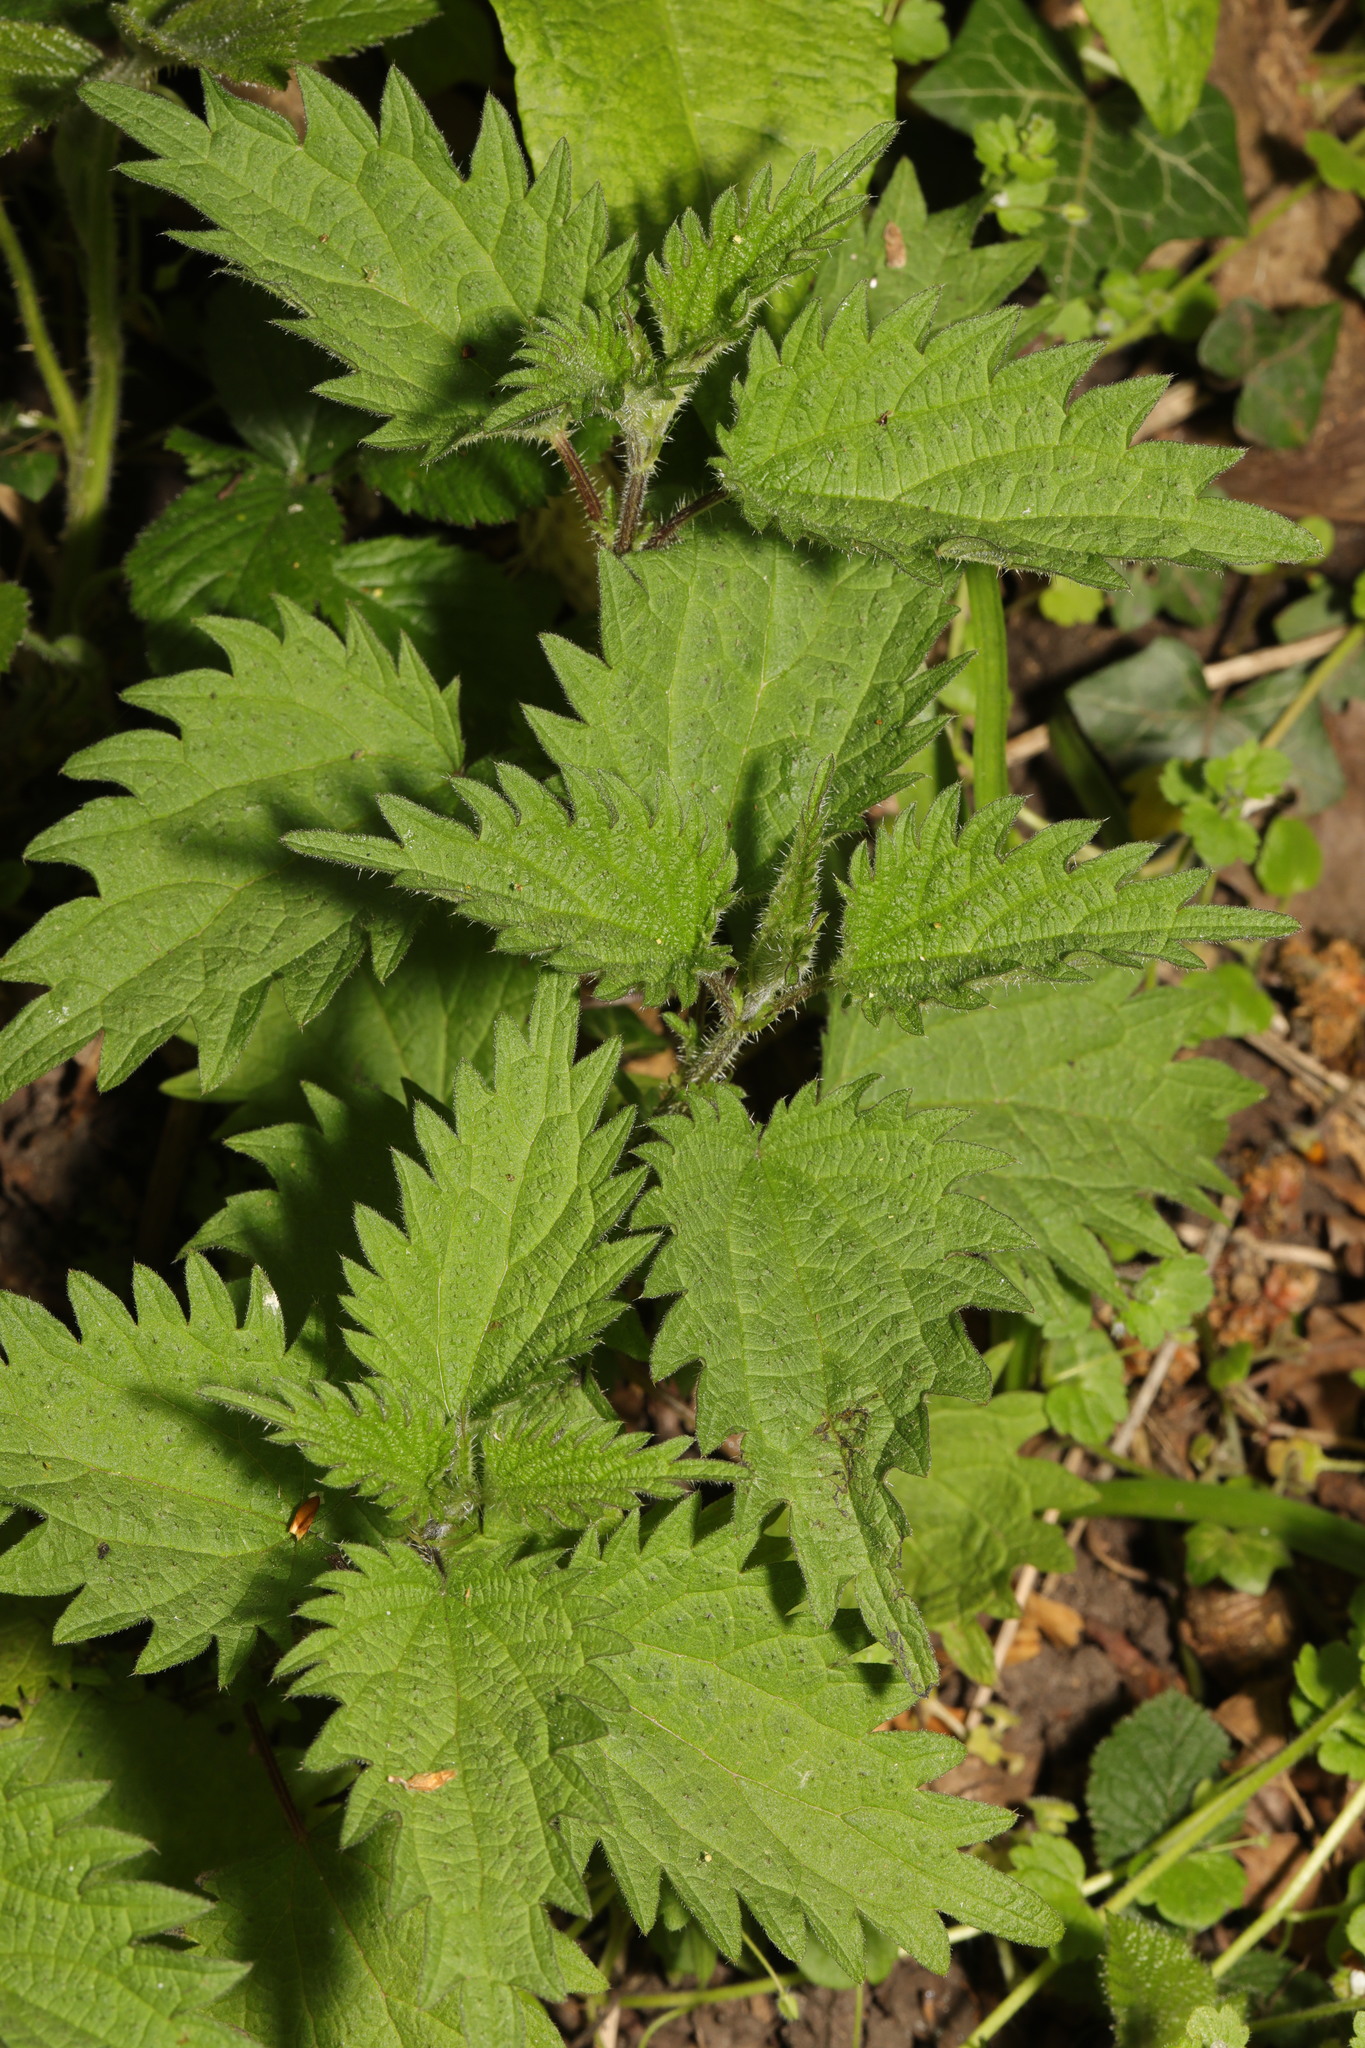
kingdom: Plantae
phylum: Tracheophyta
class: Magnoliopsida
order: Rosales
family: Urticaceae
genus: Urtica
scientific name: Urtica dioica
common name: Common nettle
